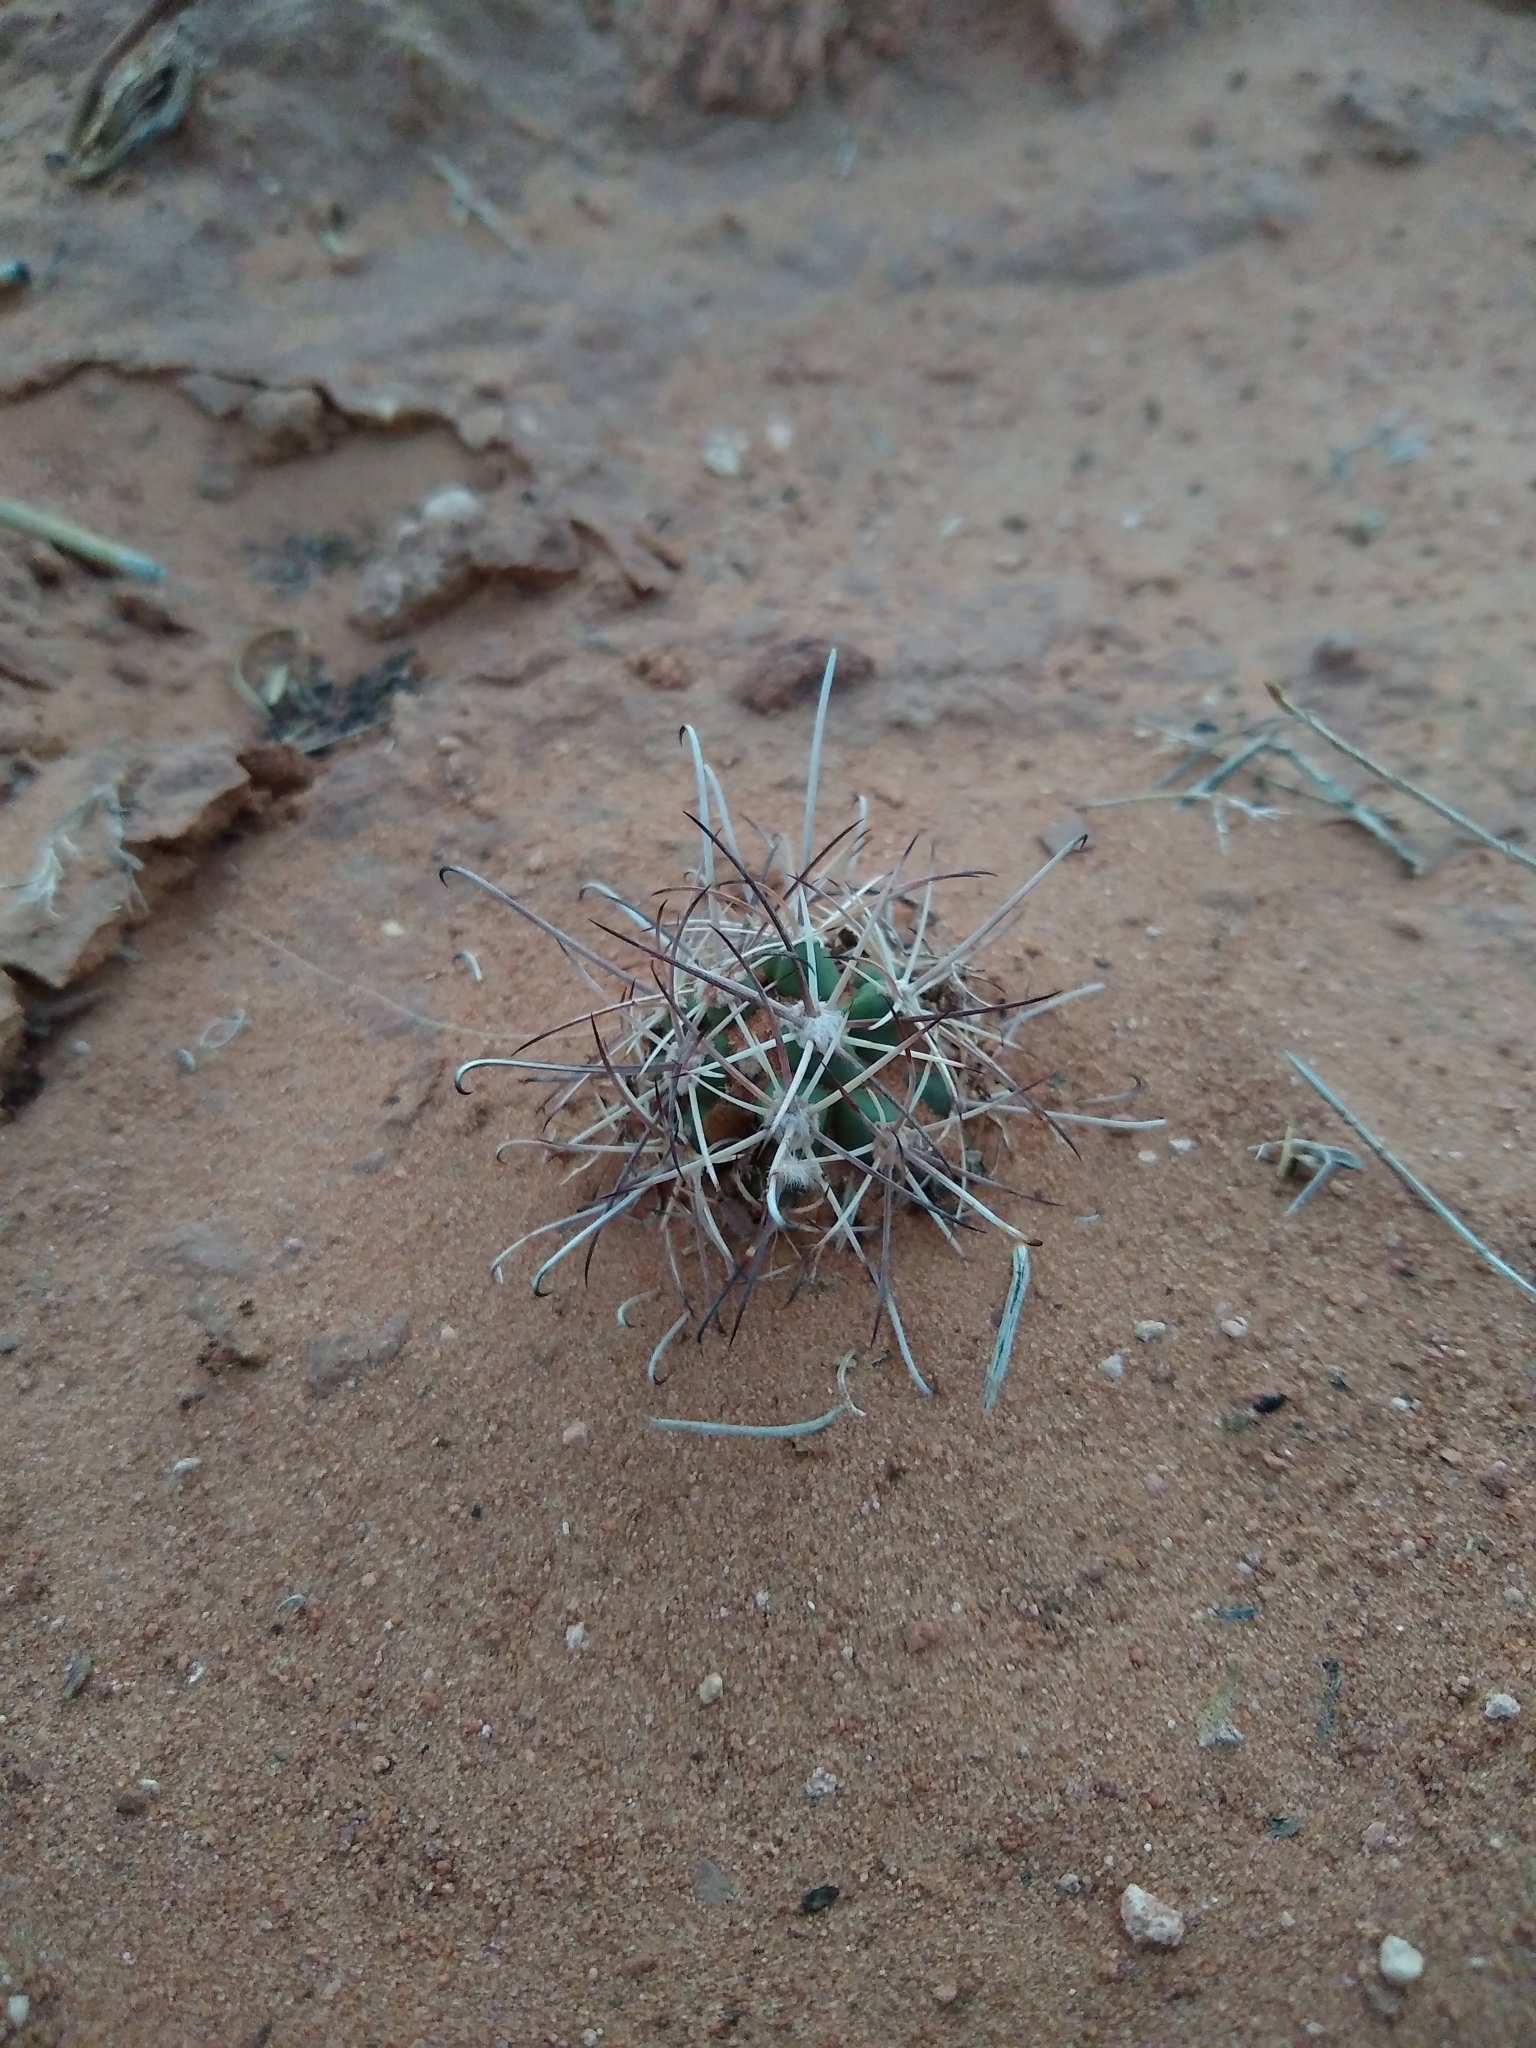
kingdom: Plantae
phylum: Tracheophyta
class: Magnoliopsida
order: Caryophyllales
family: Cactaceae
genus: Sclerocactus
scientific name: Sclerocactus parviflorus
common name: Small-flower fishhook cactus
